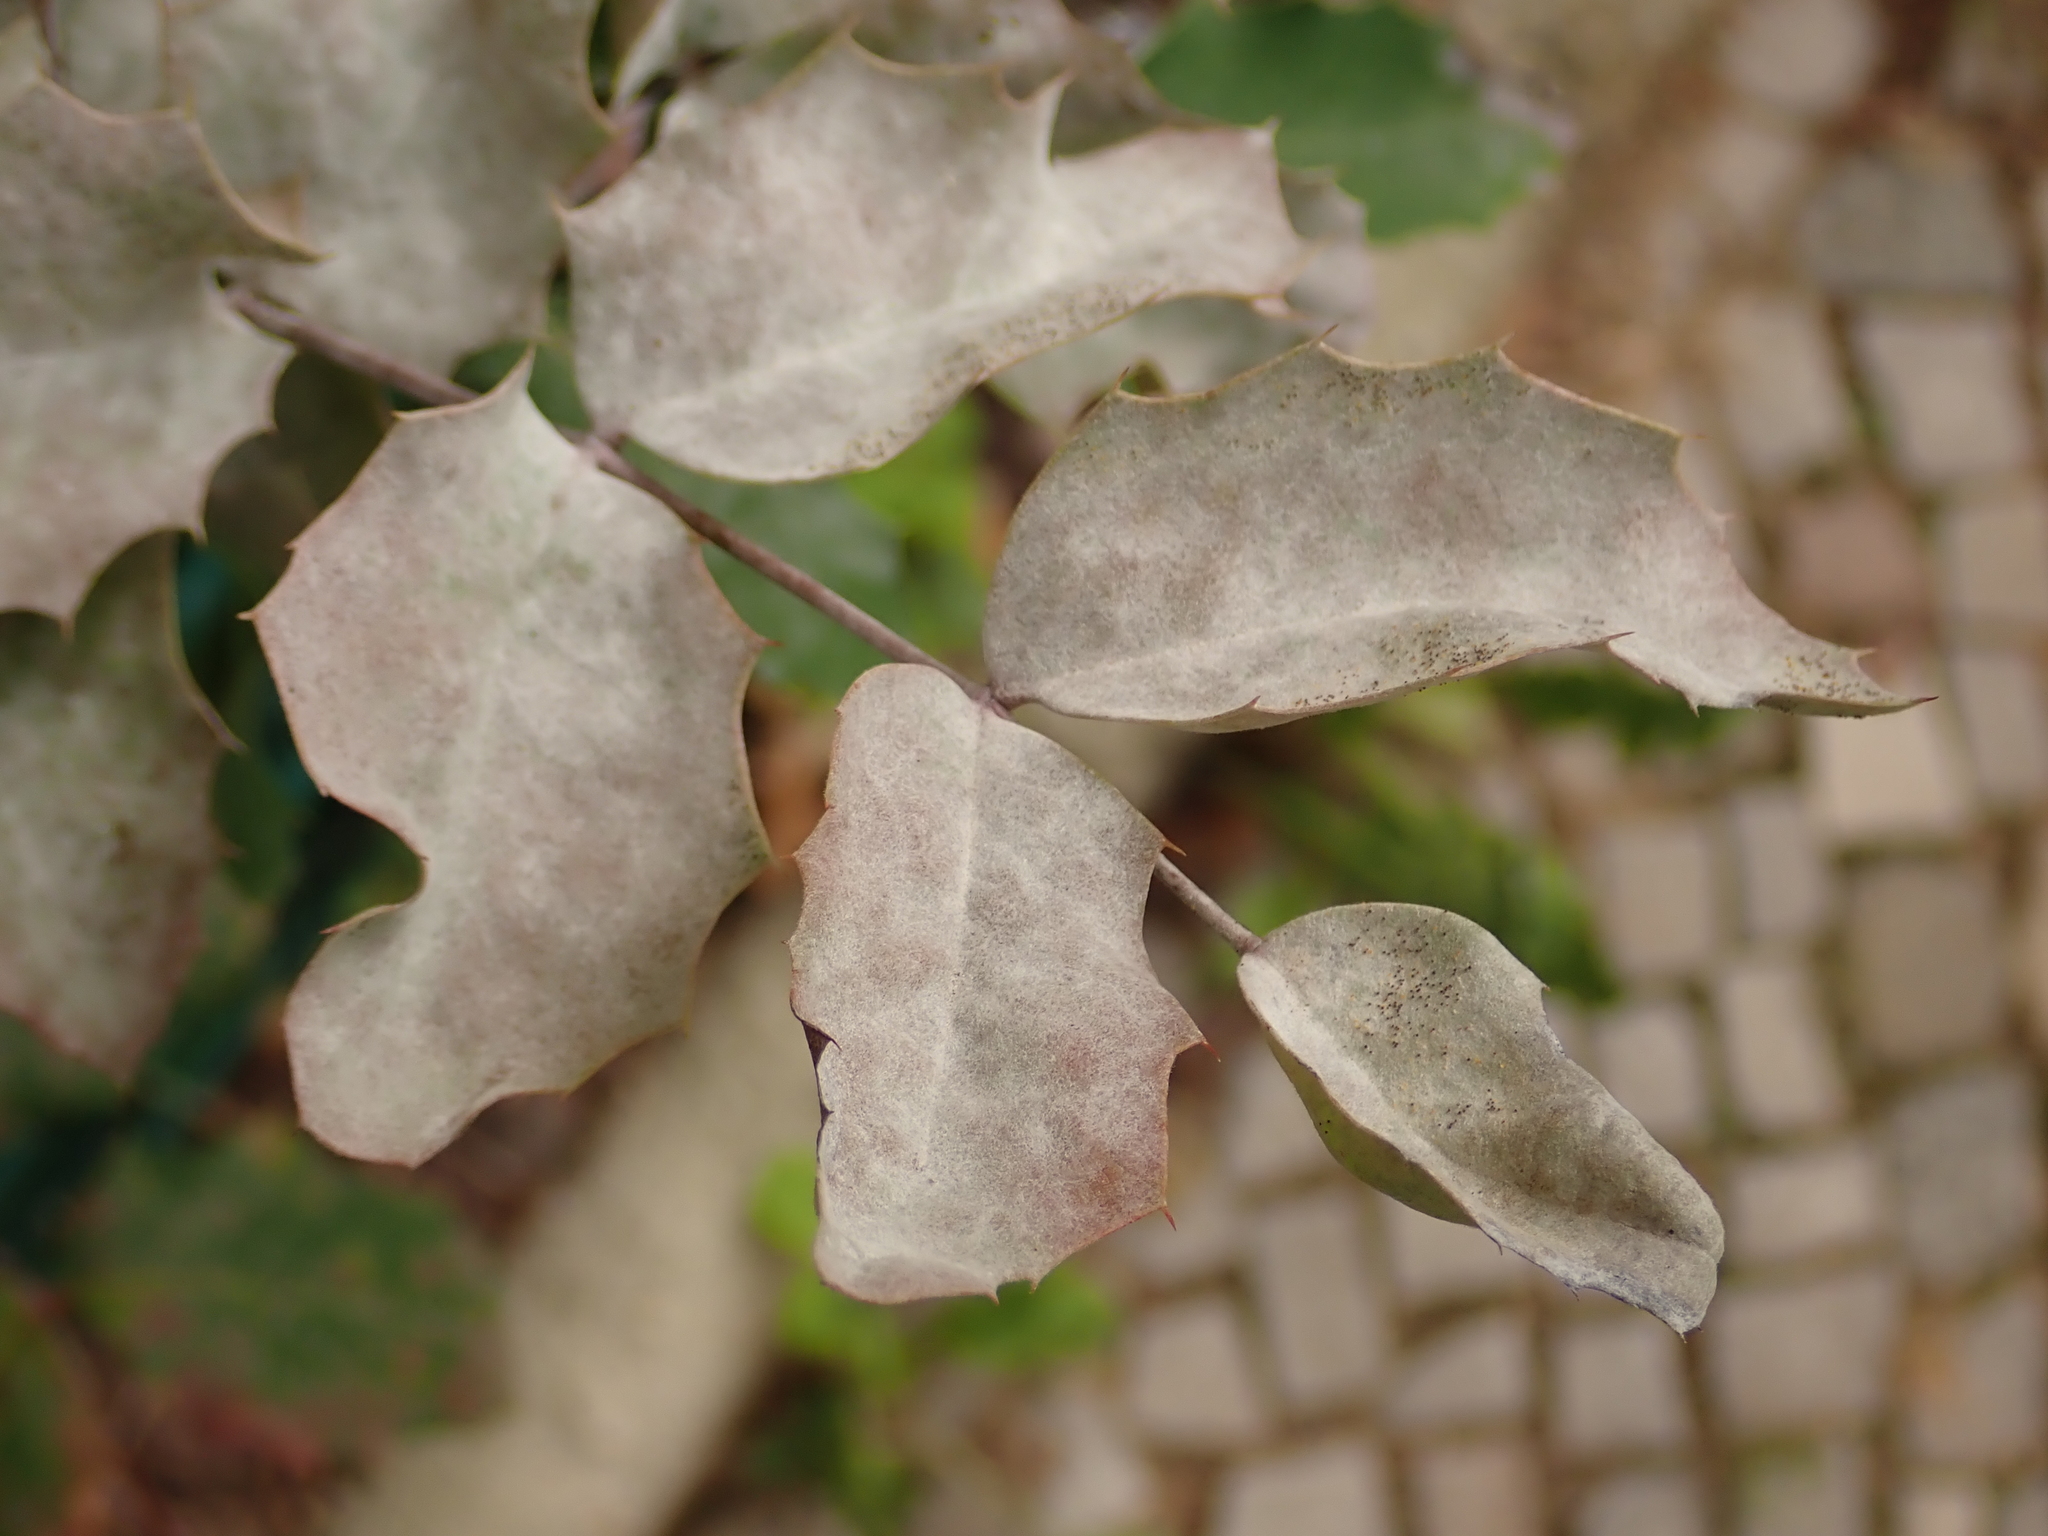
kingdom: Fungi
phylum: Ascomycota
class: Leotiomycetes
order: Helotiales
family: Erysiphaceae
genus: Erysiphe
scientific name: Erysiphe berberidis
